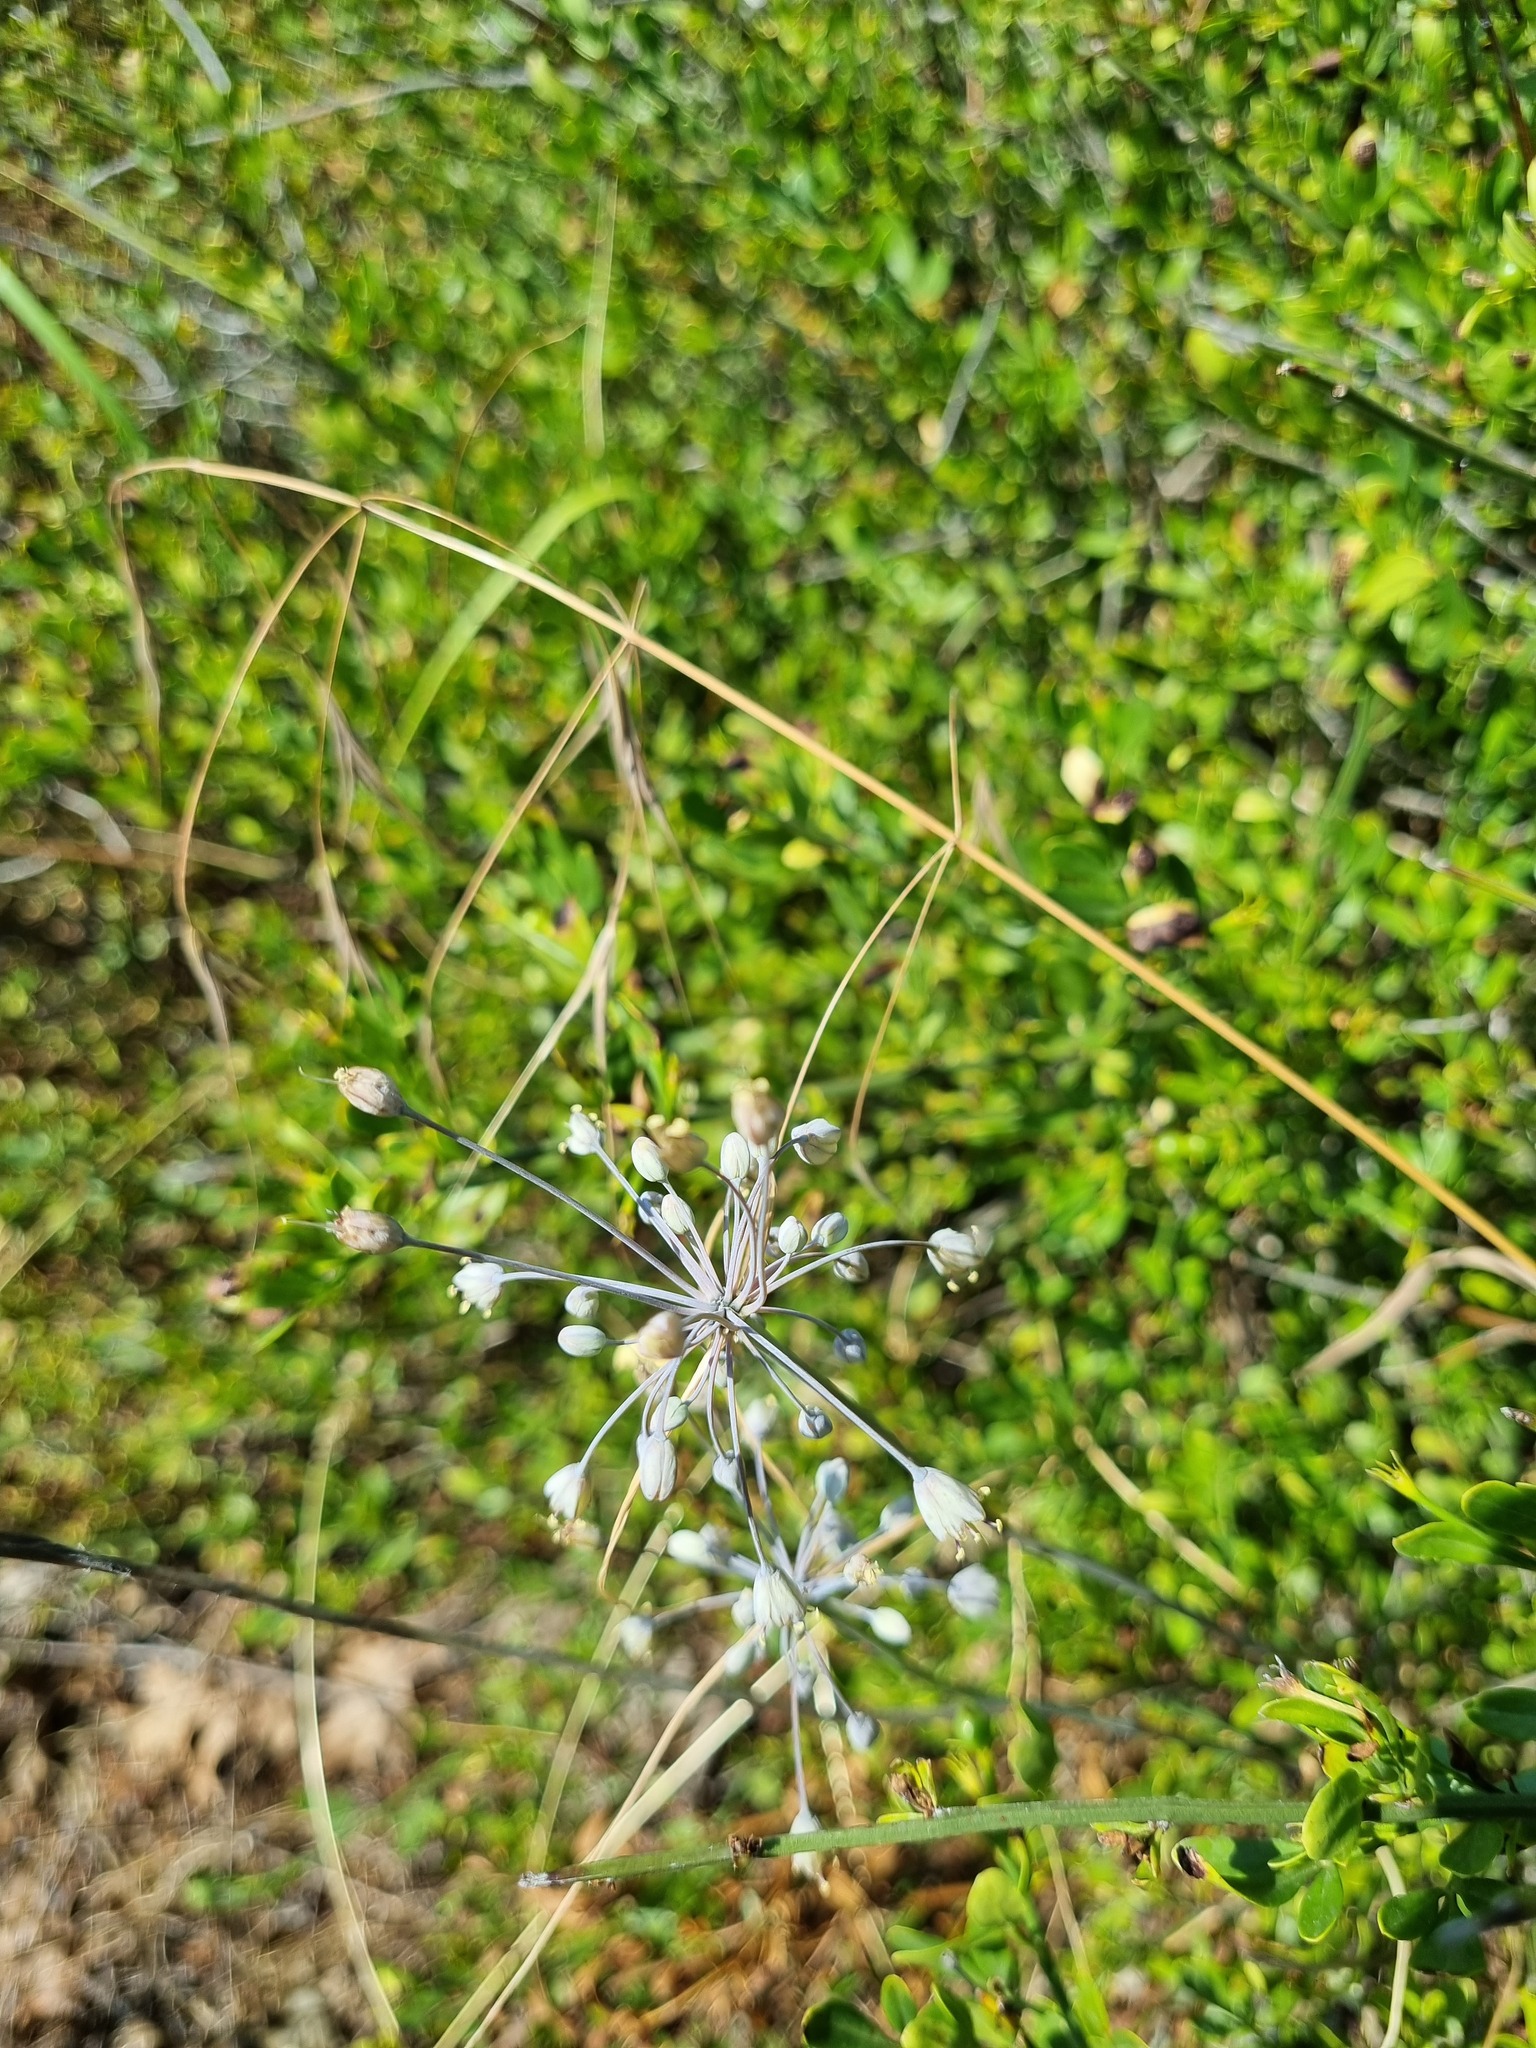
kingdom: Plantae
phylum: Tracheophyta
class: Liliopsida
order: Asparagales
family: Amaryllidaceae
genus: Allium
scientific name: Allium flavum
